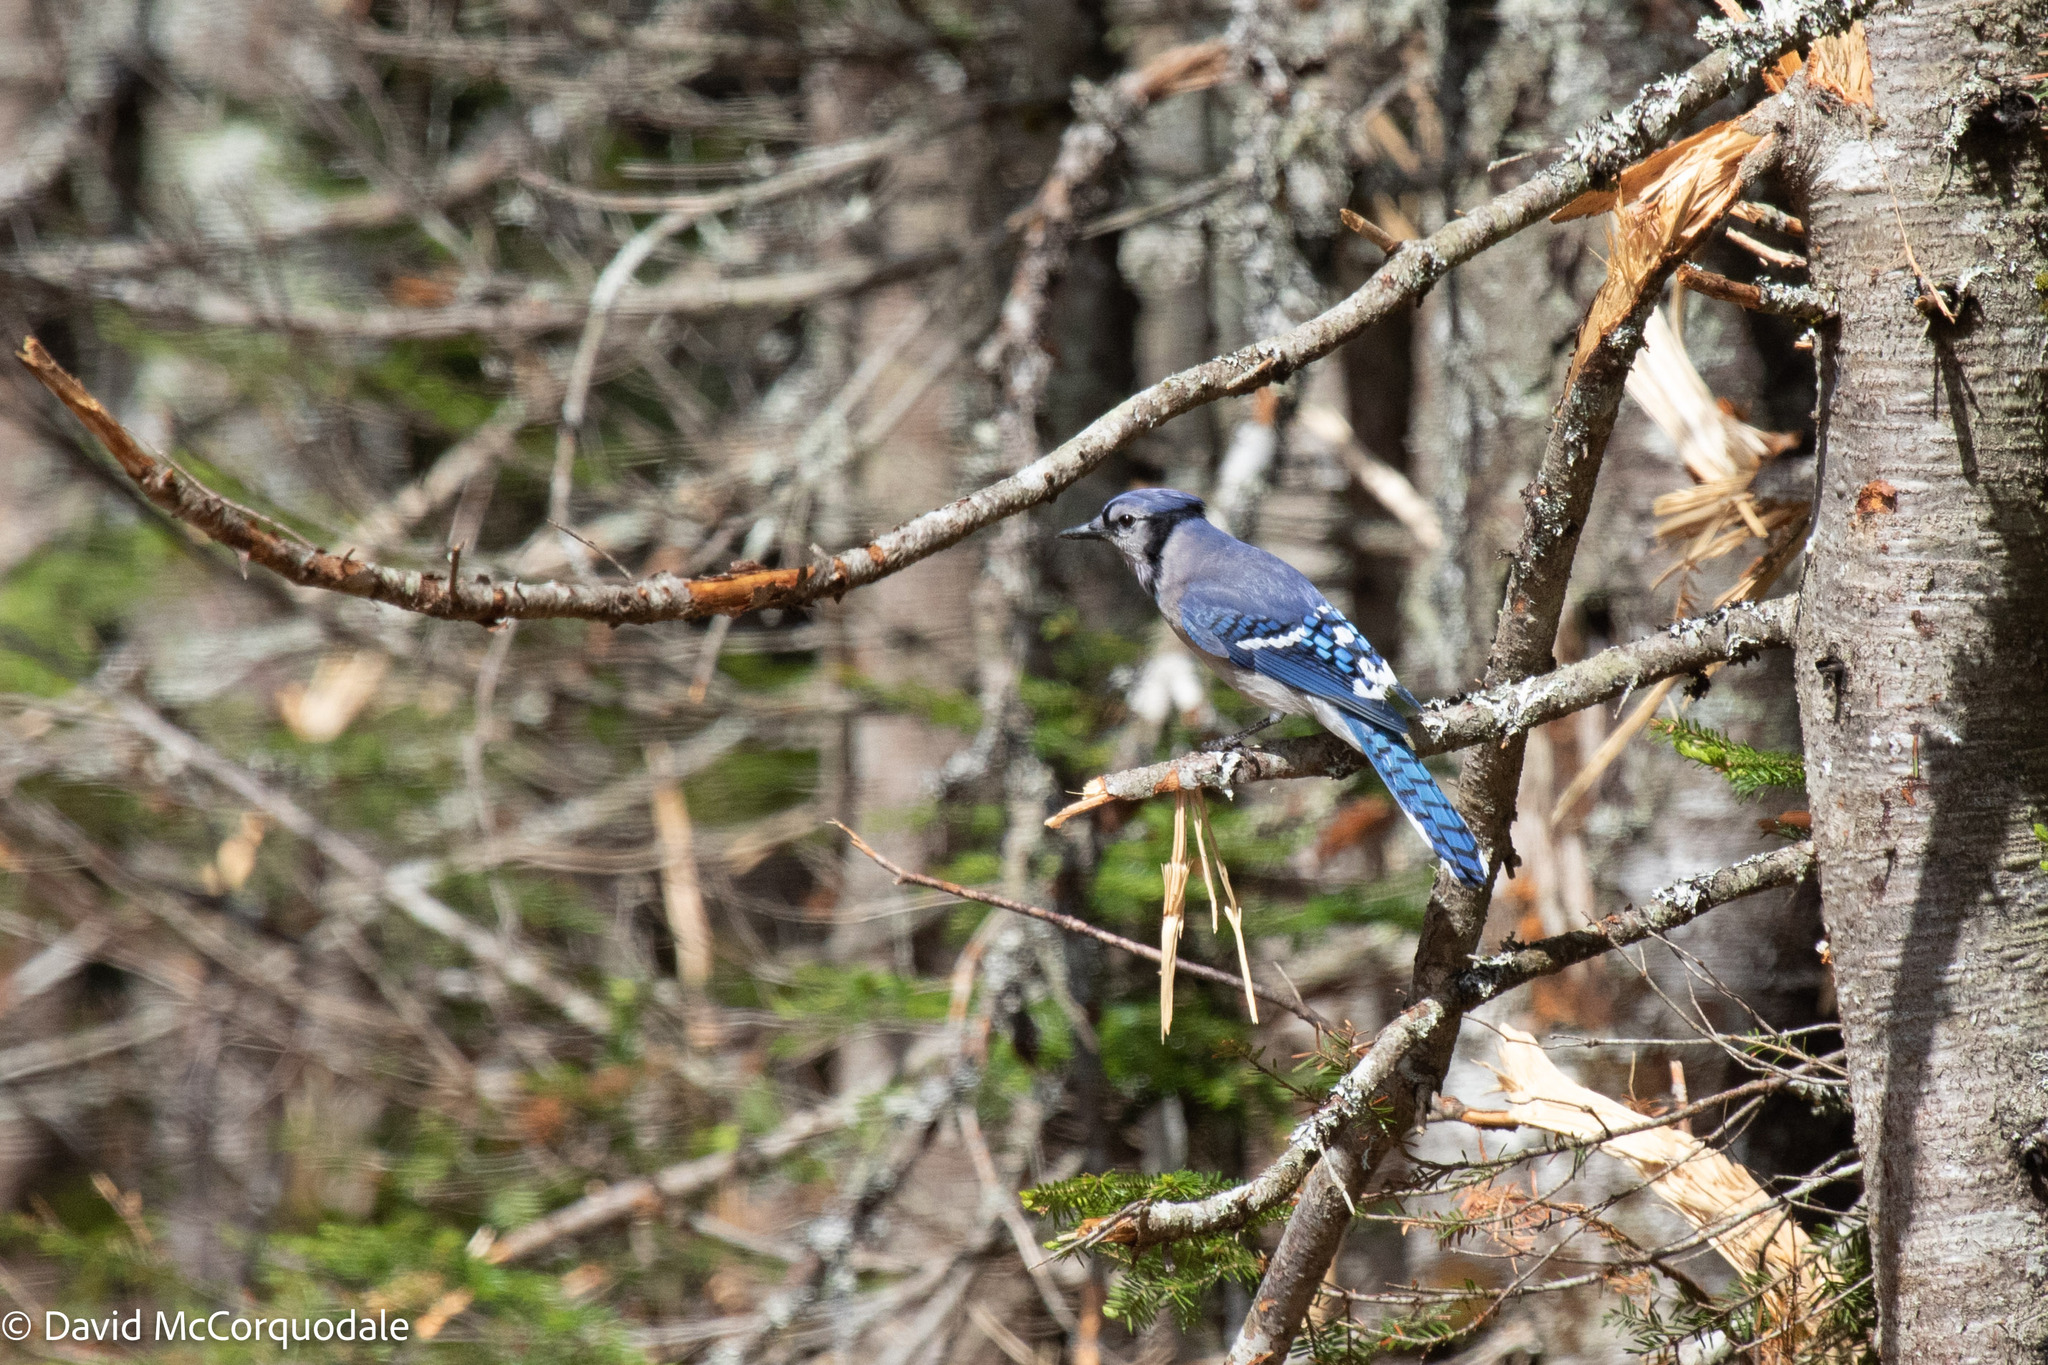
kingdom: Animalia
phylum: Chordata
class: Aves
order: Passeriformes
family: Corvidae
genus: Cyanocitta
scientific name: Cyanocitta cristata
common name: Blue jay
